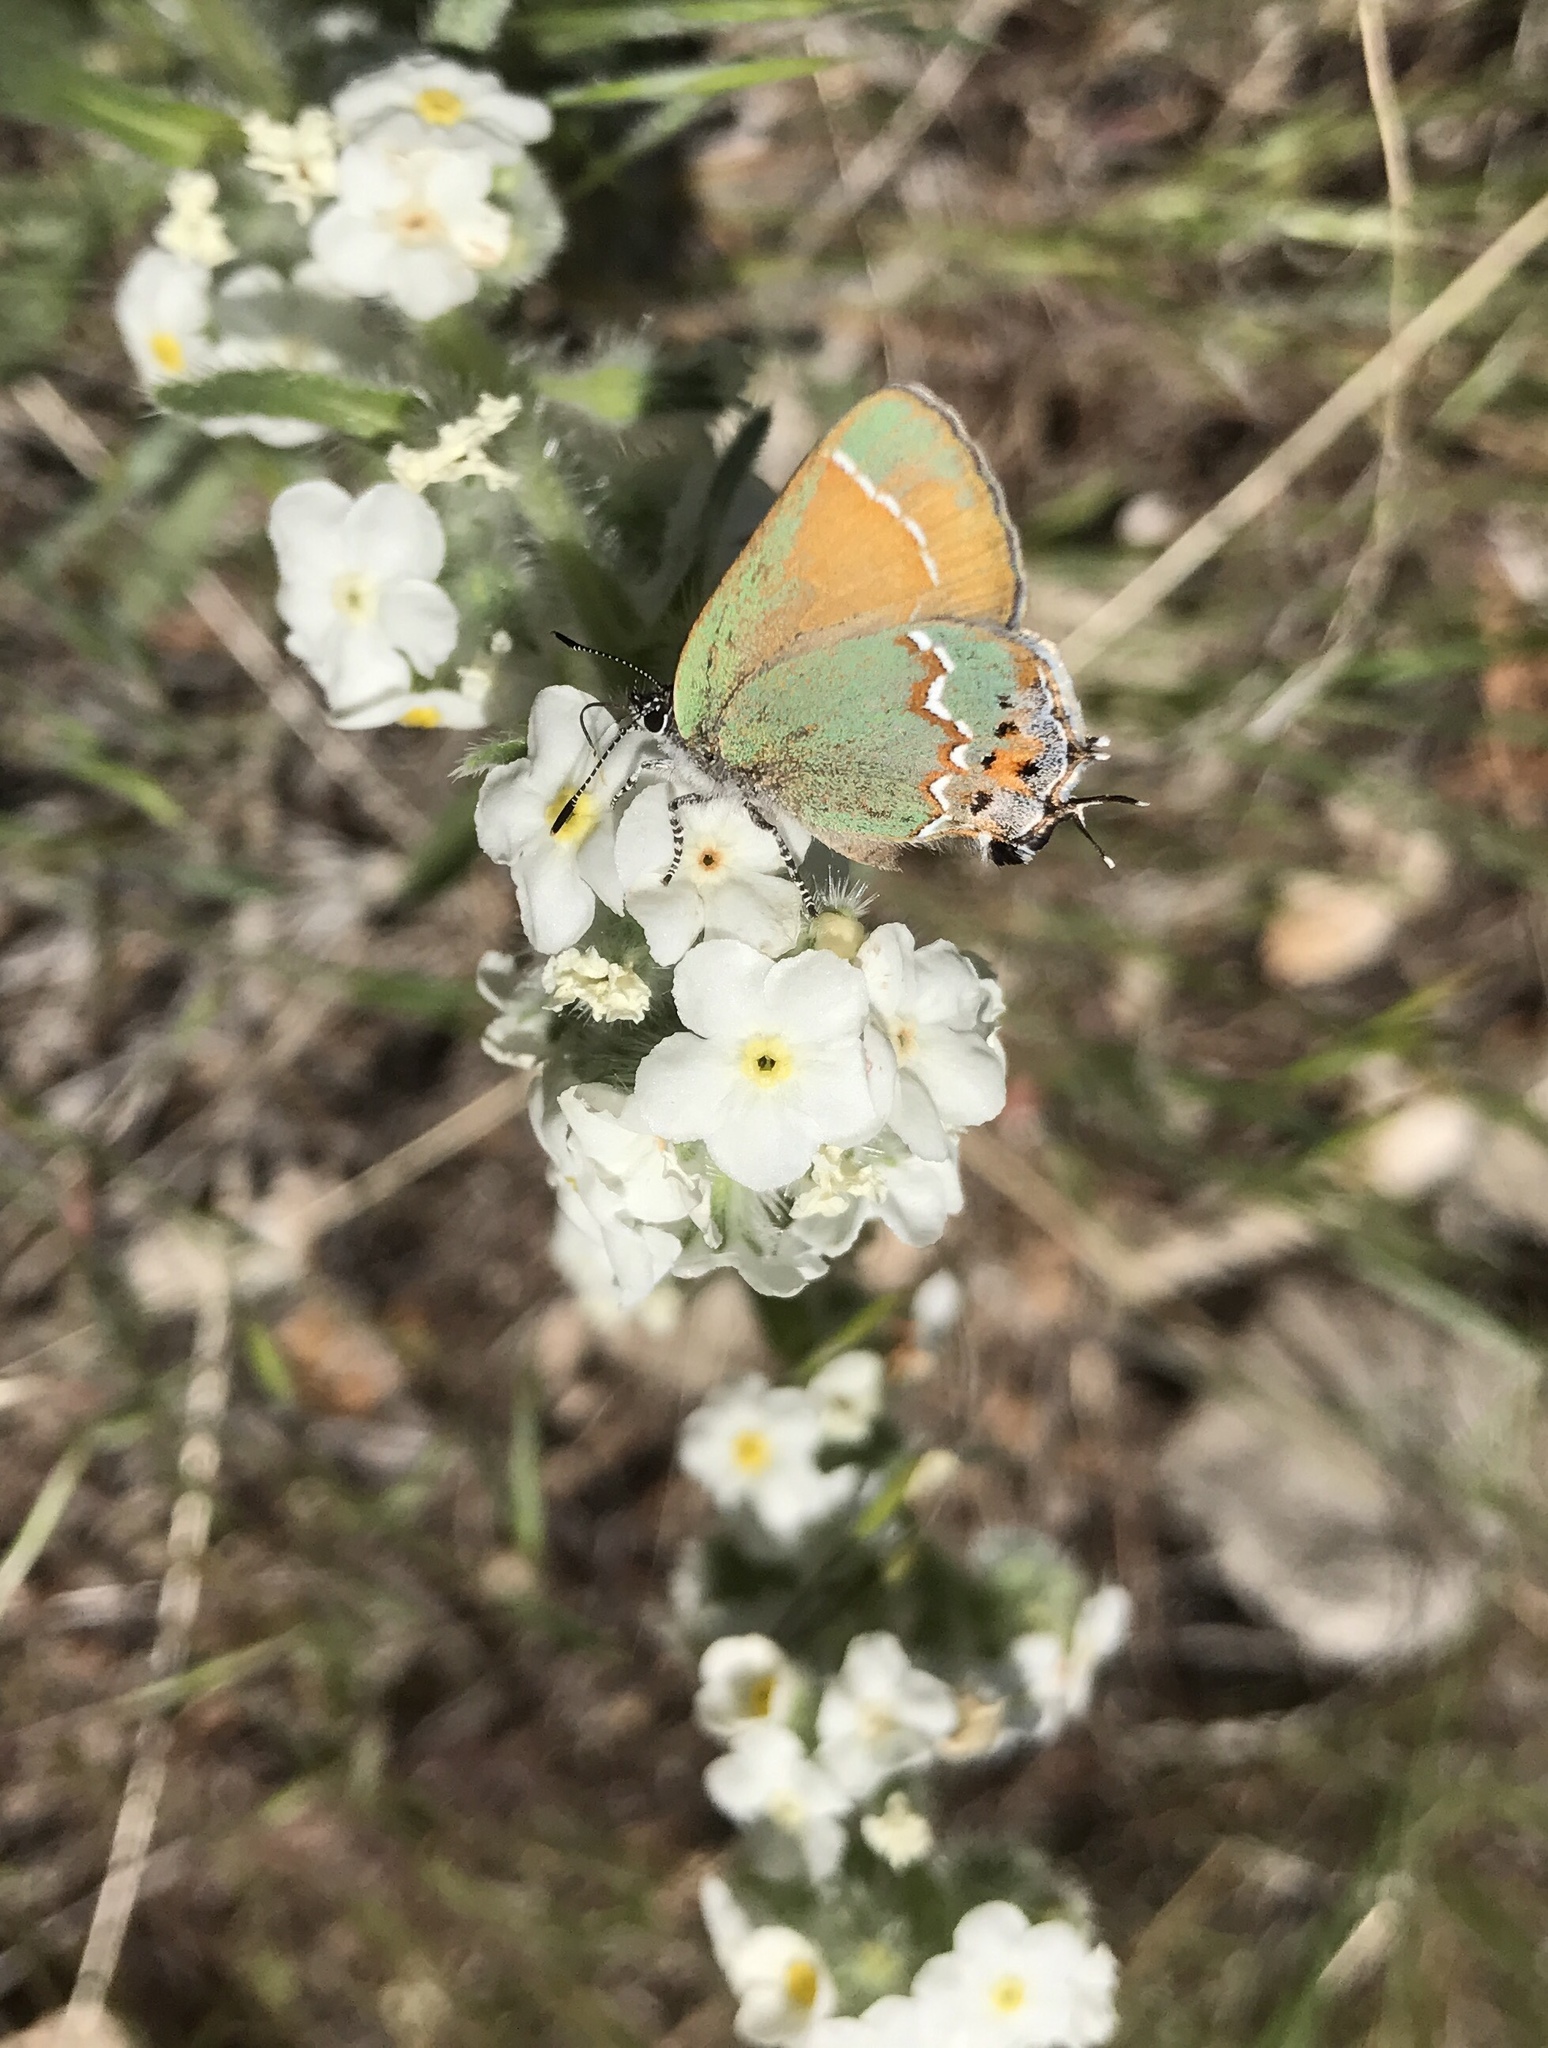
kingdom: Animalia
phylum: Arthropoda
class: Insecta
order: Lepidoptera
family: Lycaenidae
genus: Mitoura
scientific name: Mitoura gryneus
